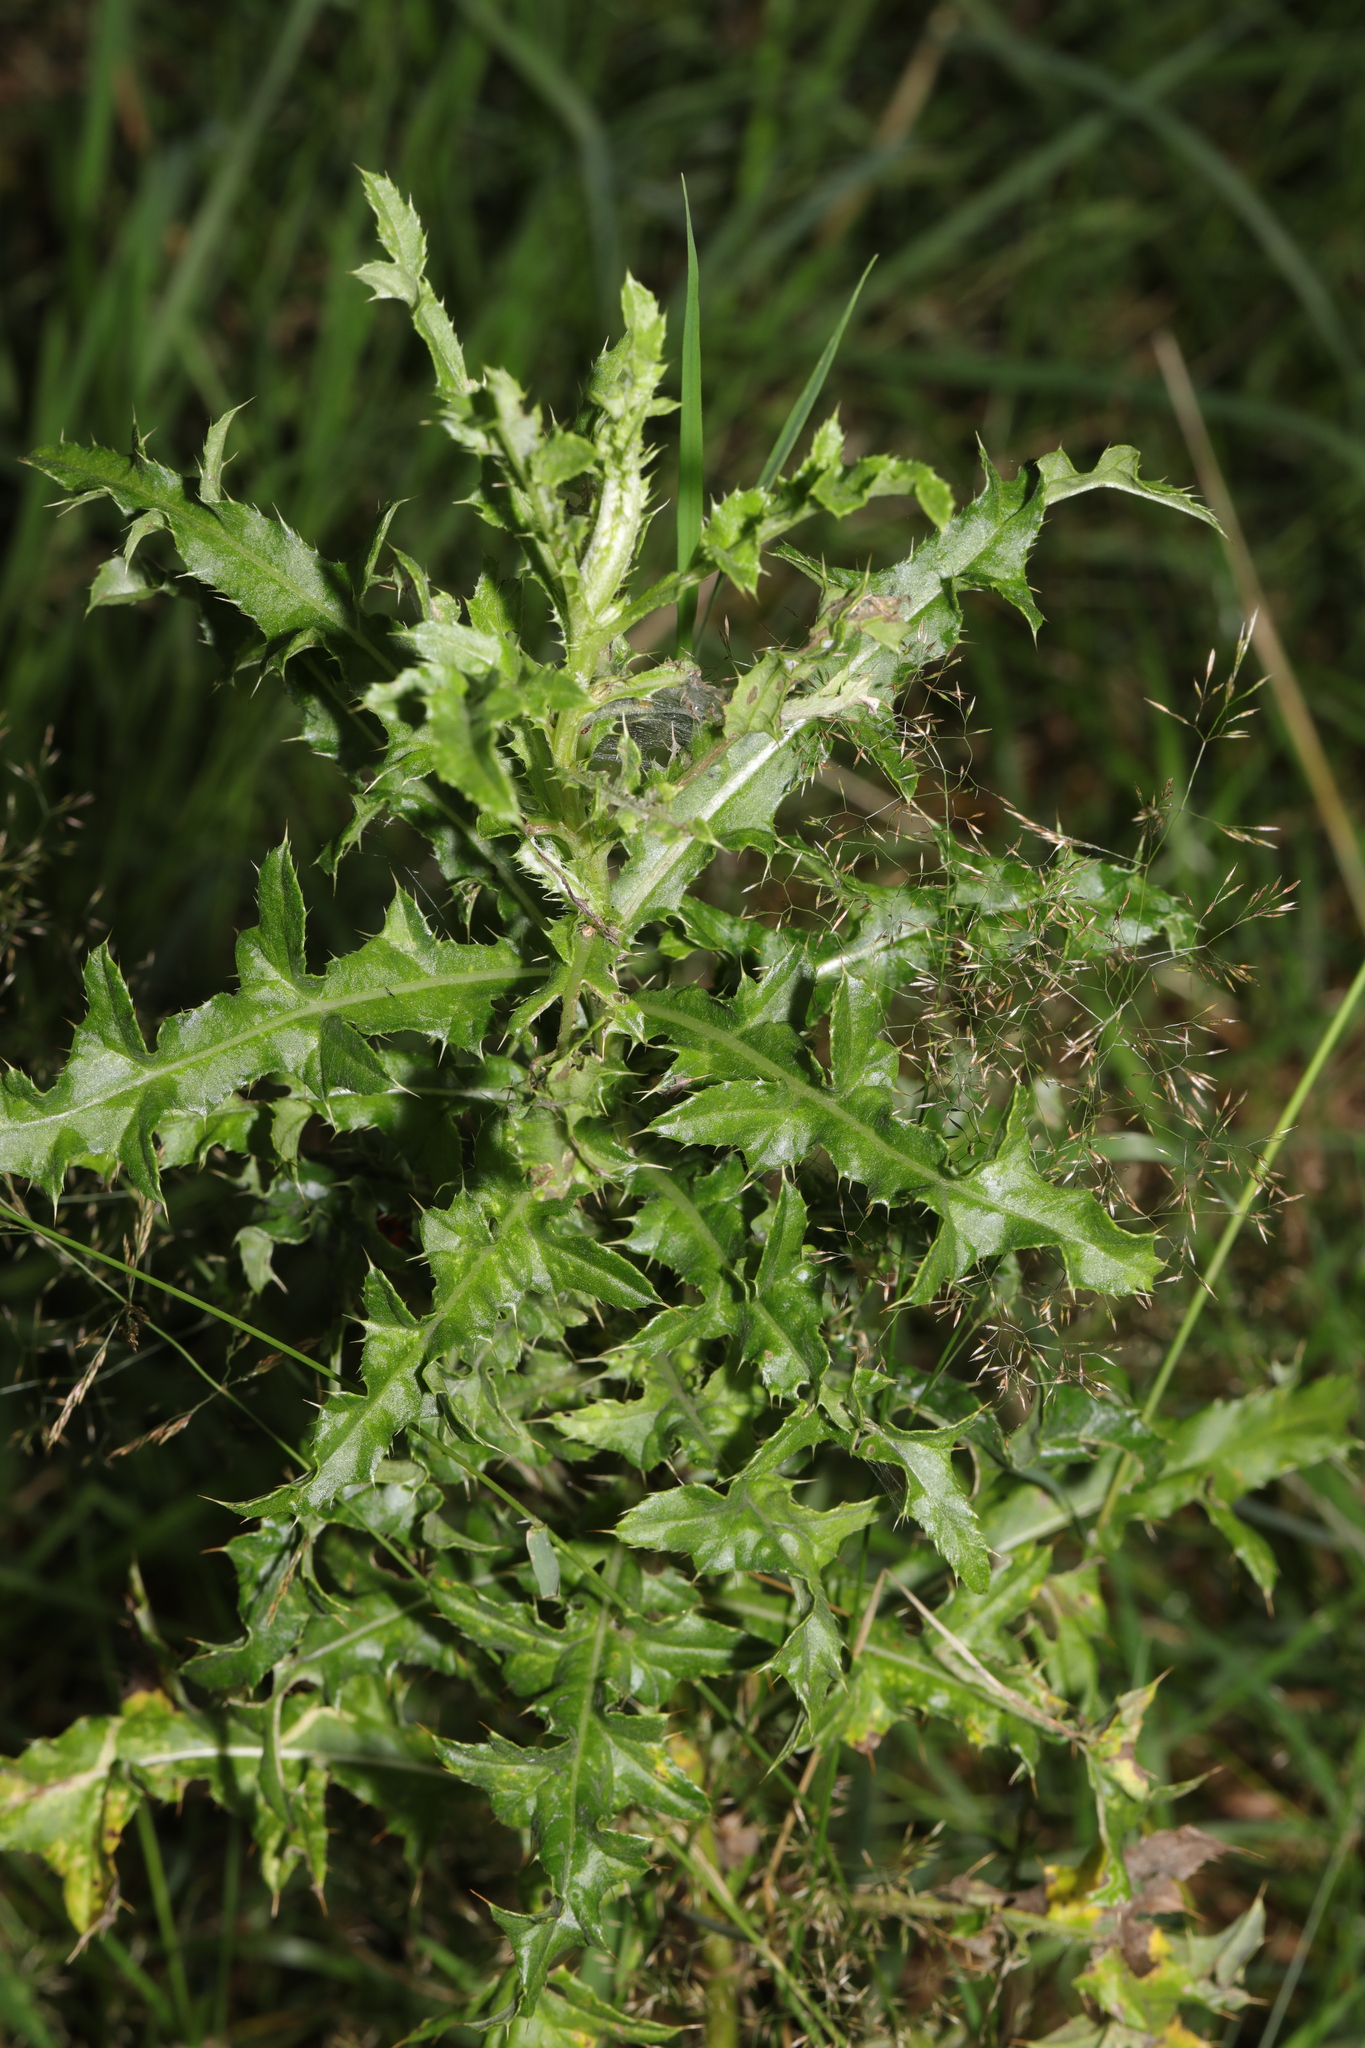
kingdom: Plantae
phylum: Tracheophyta
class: Magnoliopsida
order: Asterales
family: Asteraceae
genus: Cirsium
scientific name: Cirsium arvense
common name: Creeping thistle
